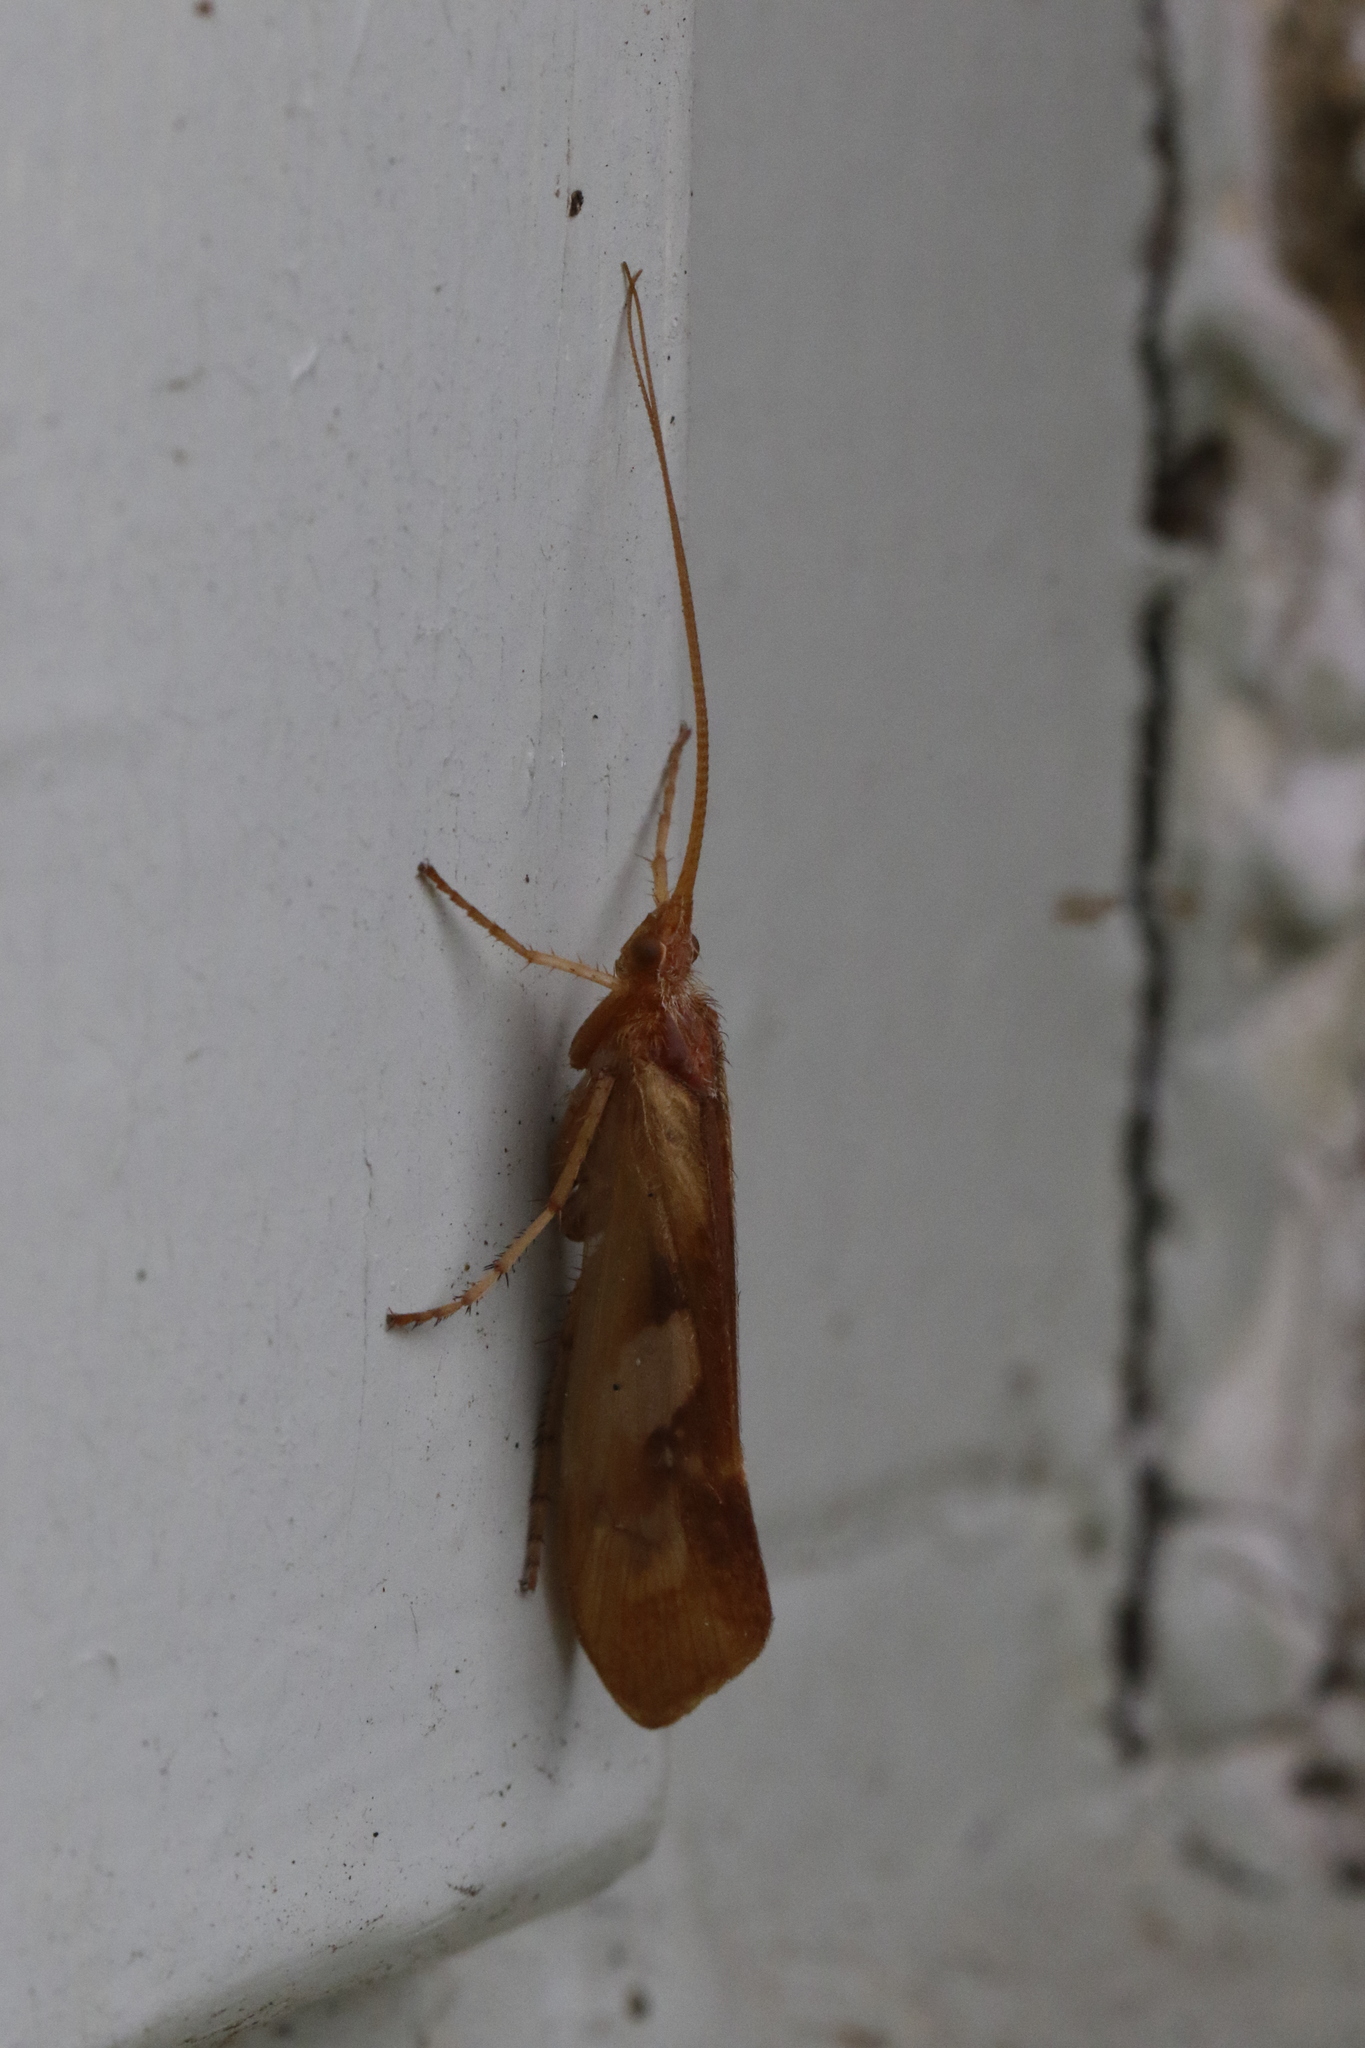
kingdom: Animalia
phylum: Arthropoda
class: Insecta
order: Trichoptera
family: Limnephilidae
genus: Limnephilus
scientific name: Limnephilus rhombicus
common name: Diamond northern caddisfly
